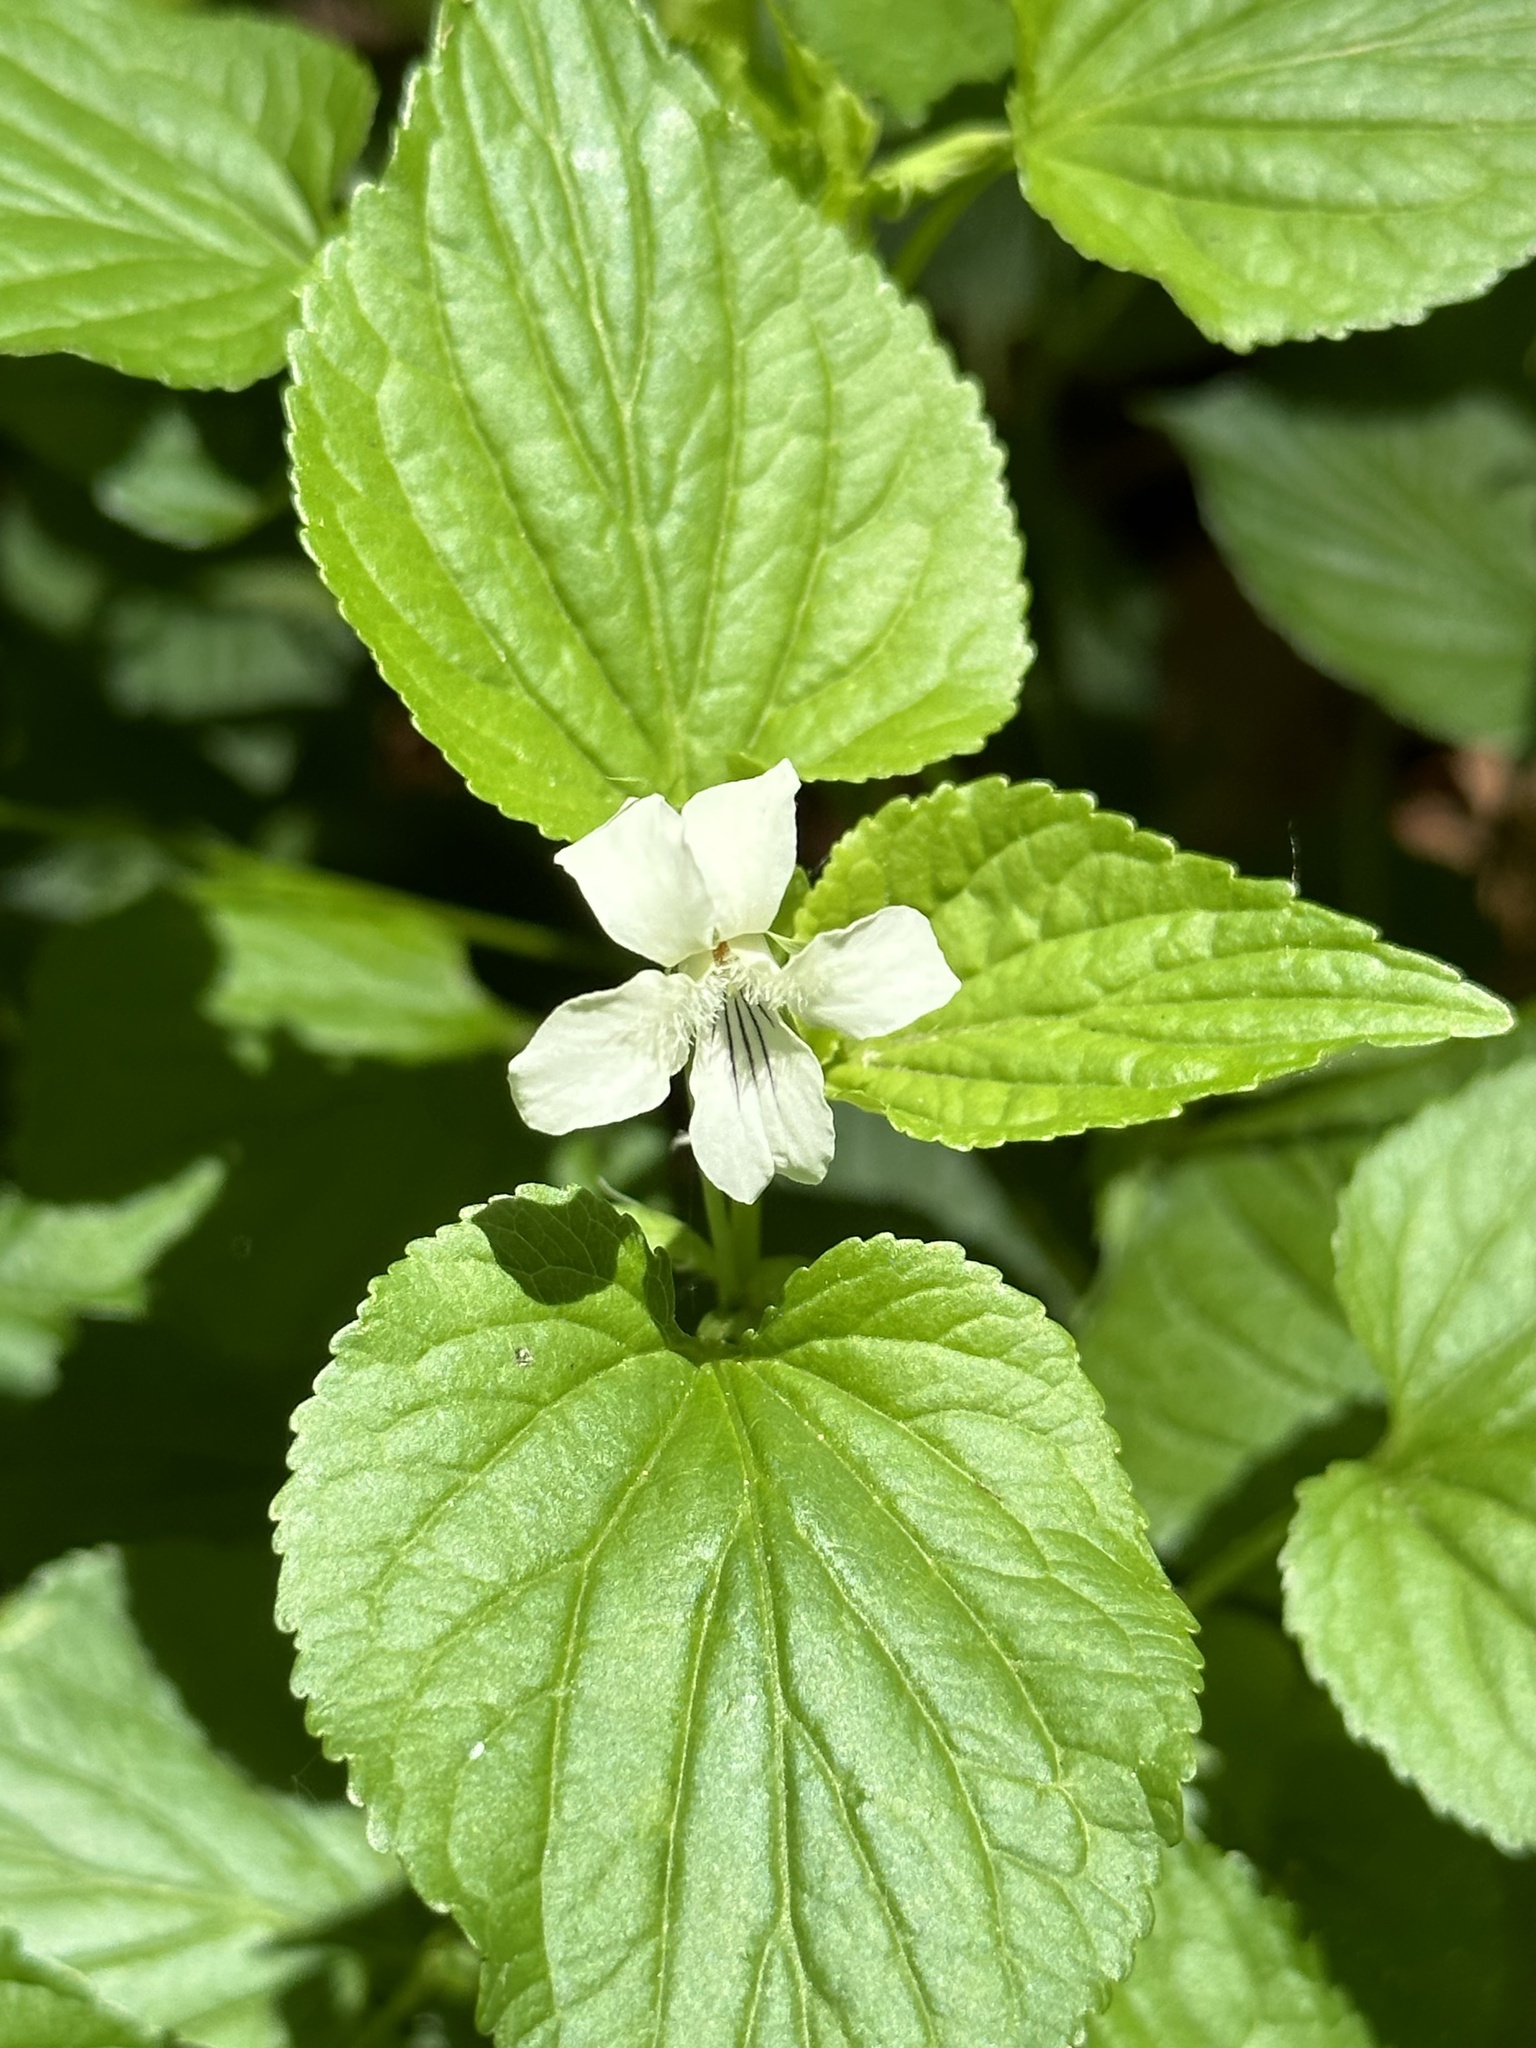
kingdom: Plantae
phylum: Tracheophyta
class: Magnoliopsida
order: Malpighiales
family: Violaceae
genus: Viola
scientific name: Viola striata
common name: Cream violet
